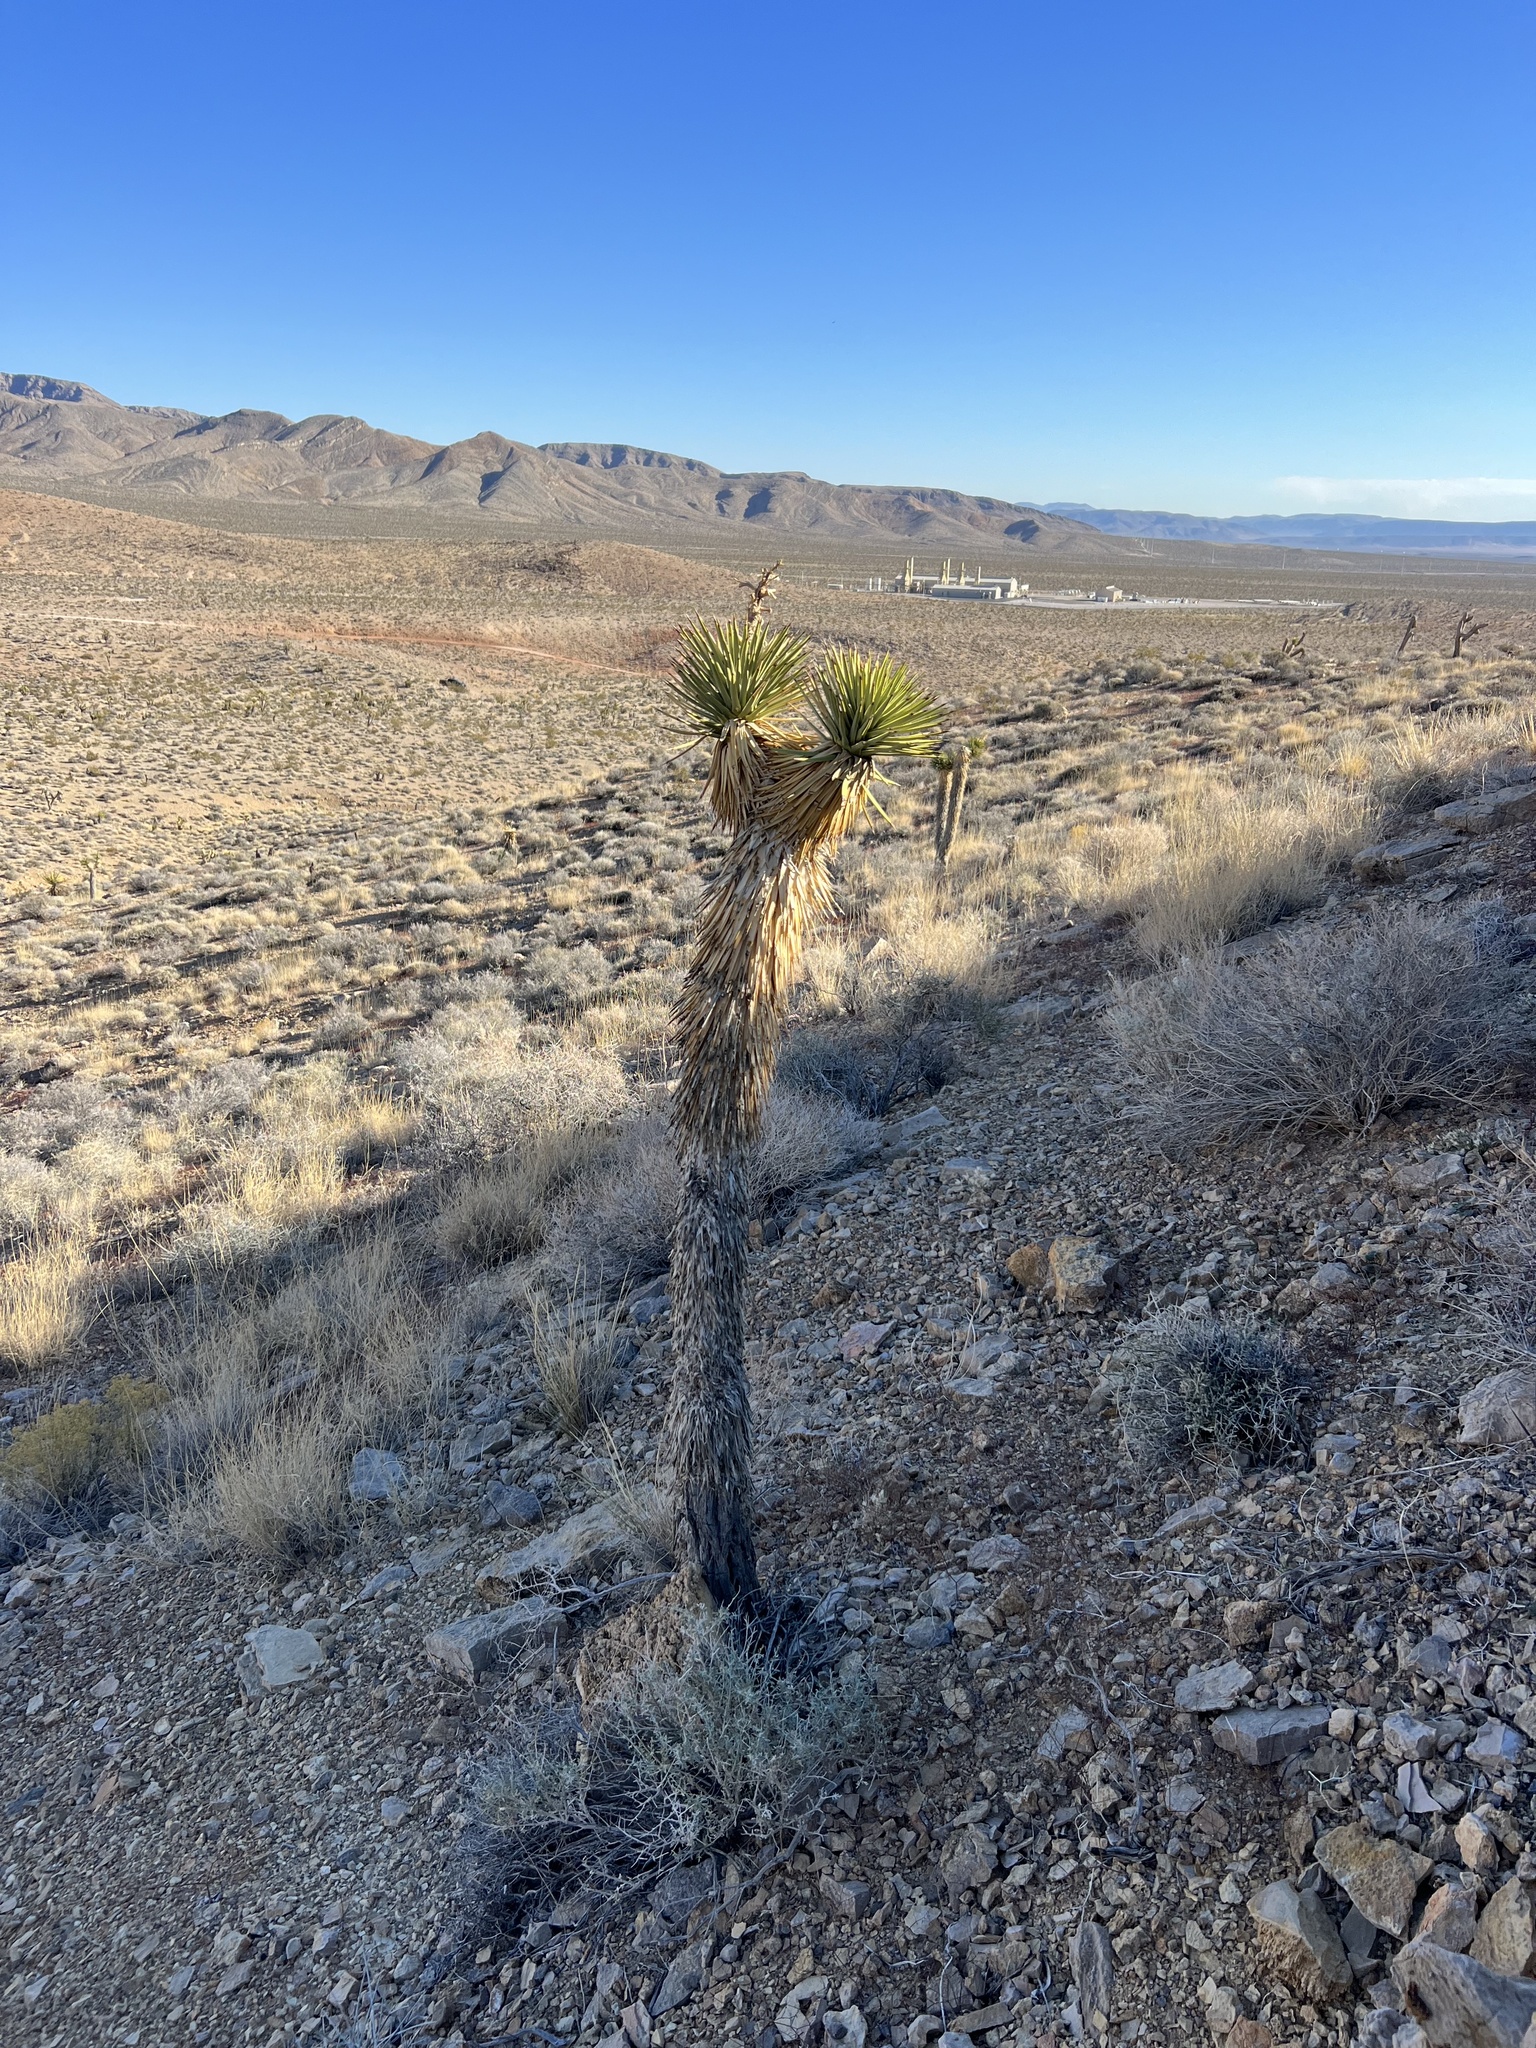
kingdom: Plantae
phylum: Tracheophyta
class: Liliopsida
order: Asparagales
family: Asparagaceae
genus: Yucca
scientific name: Yucca brevifolia
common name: Joshua tree
